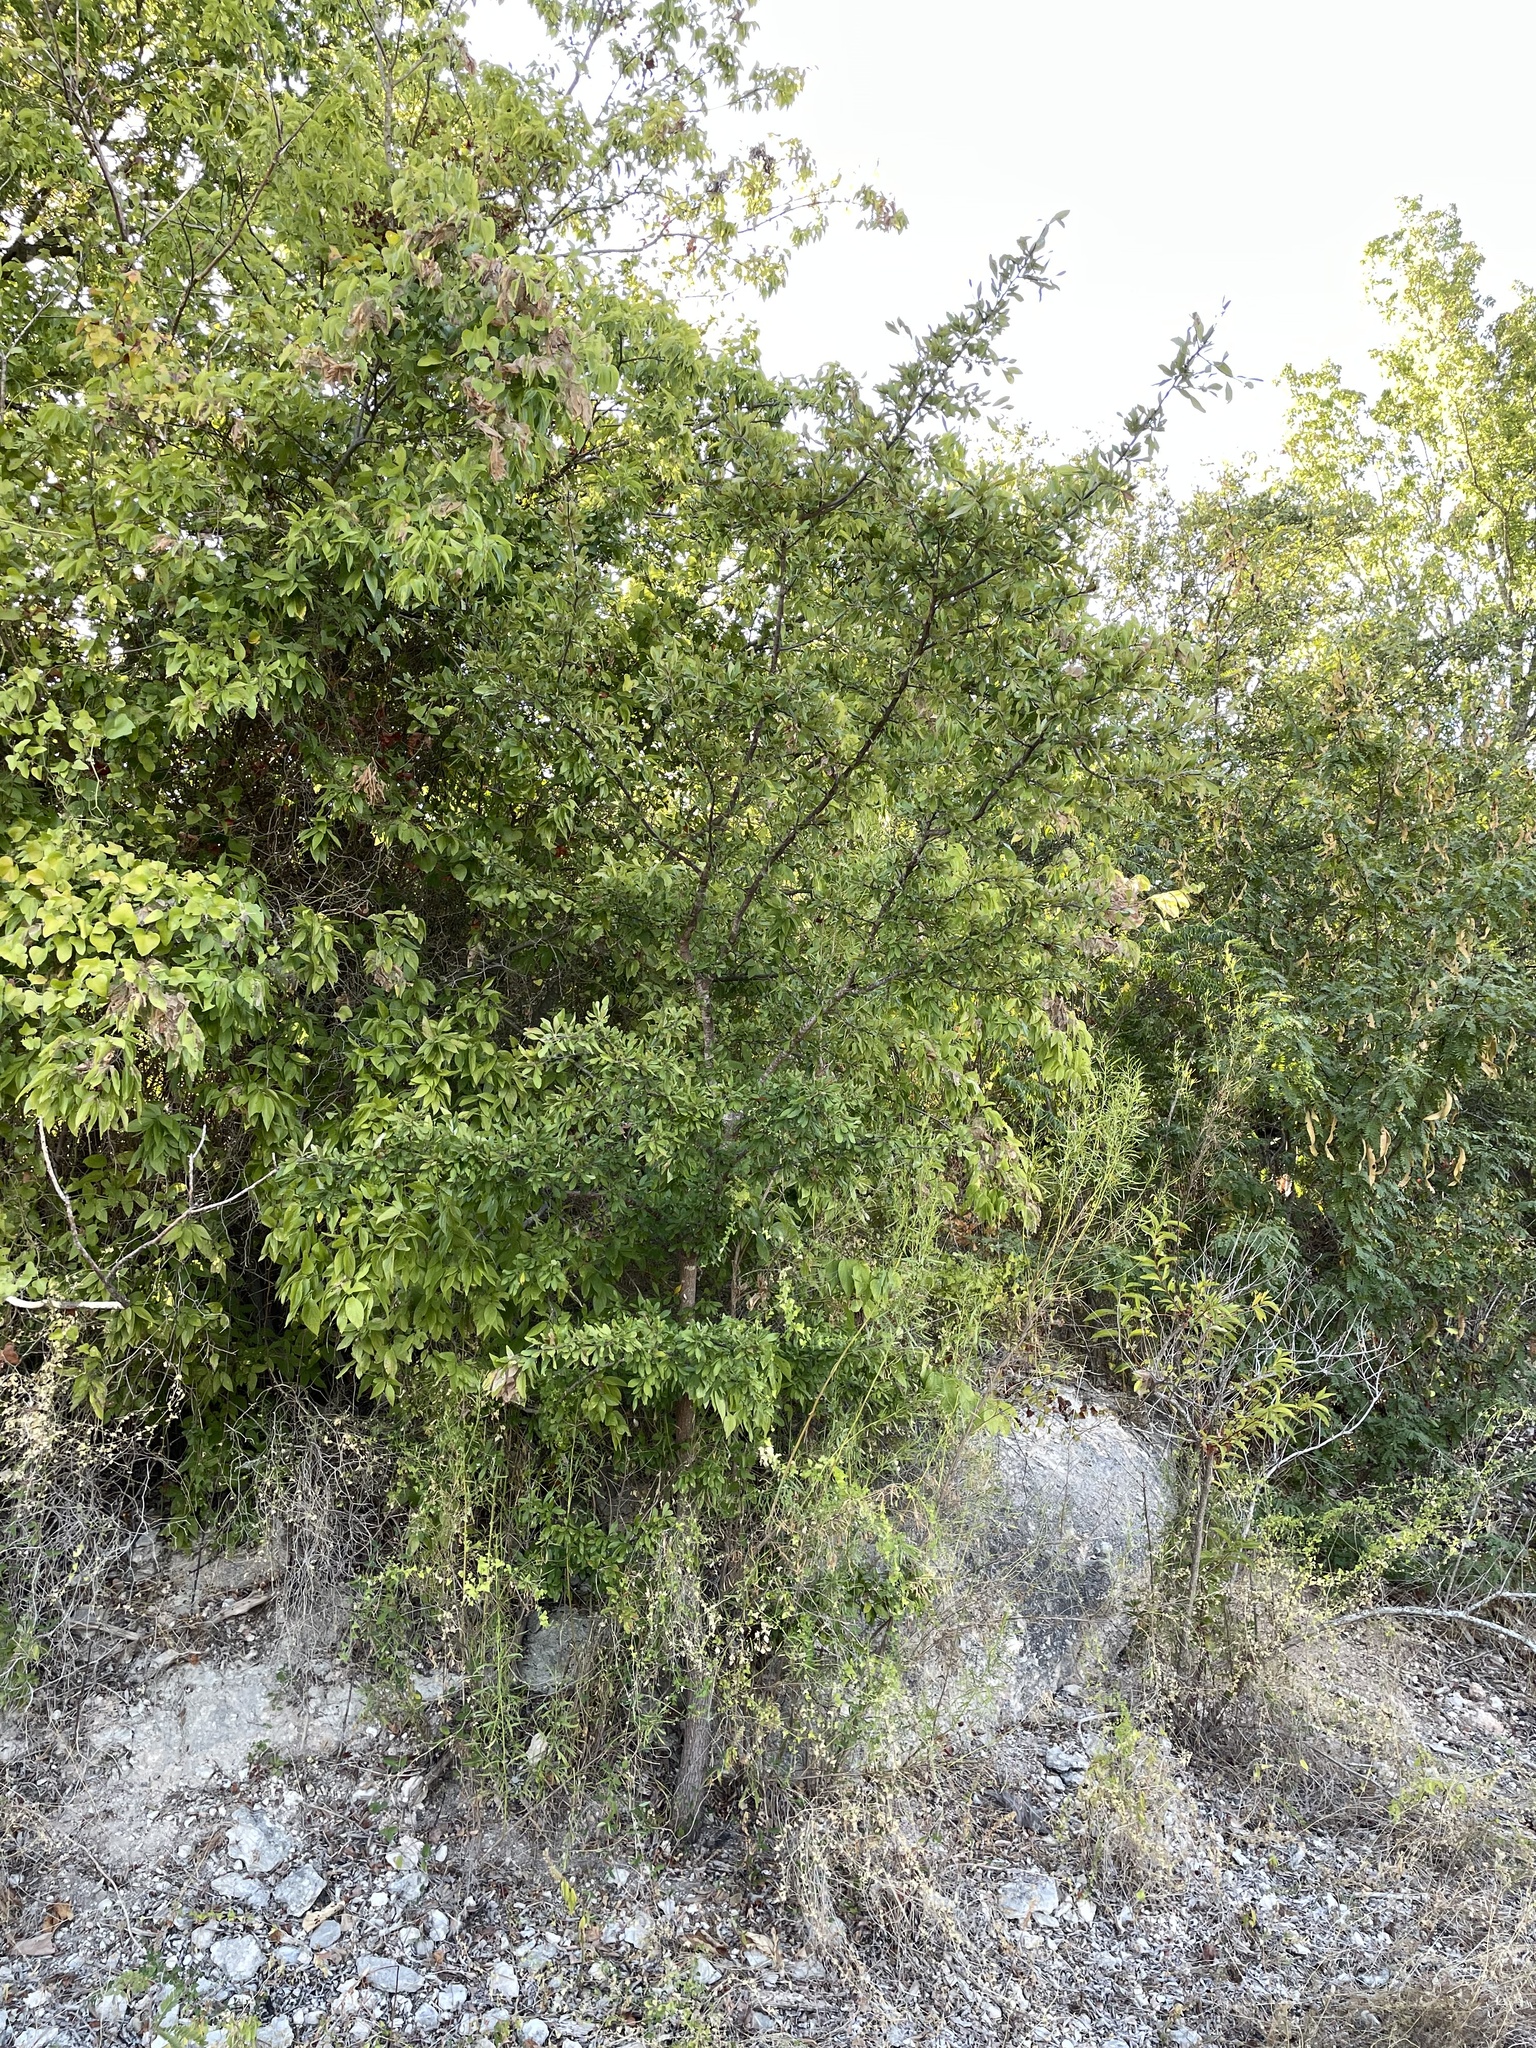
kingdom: Plantae
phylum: Tracheophyta
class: Magnoliopsida
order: Ericales
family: Sapotaceae
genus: Sideroxylon
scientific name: Sideroxylon lanuginosum
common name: Chittamwood
